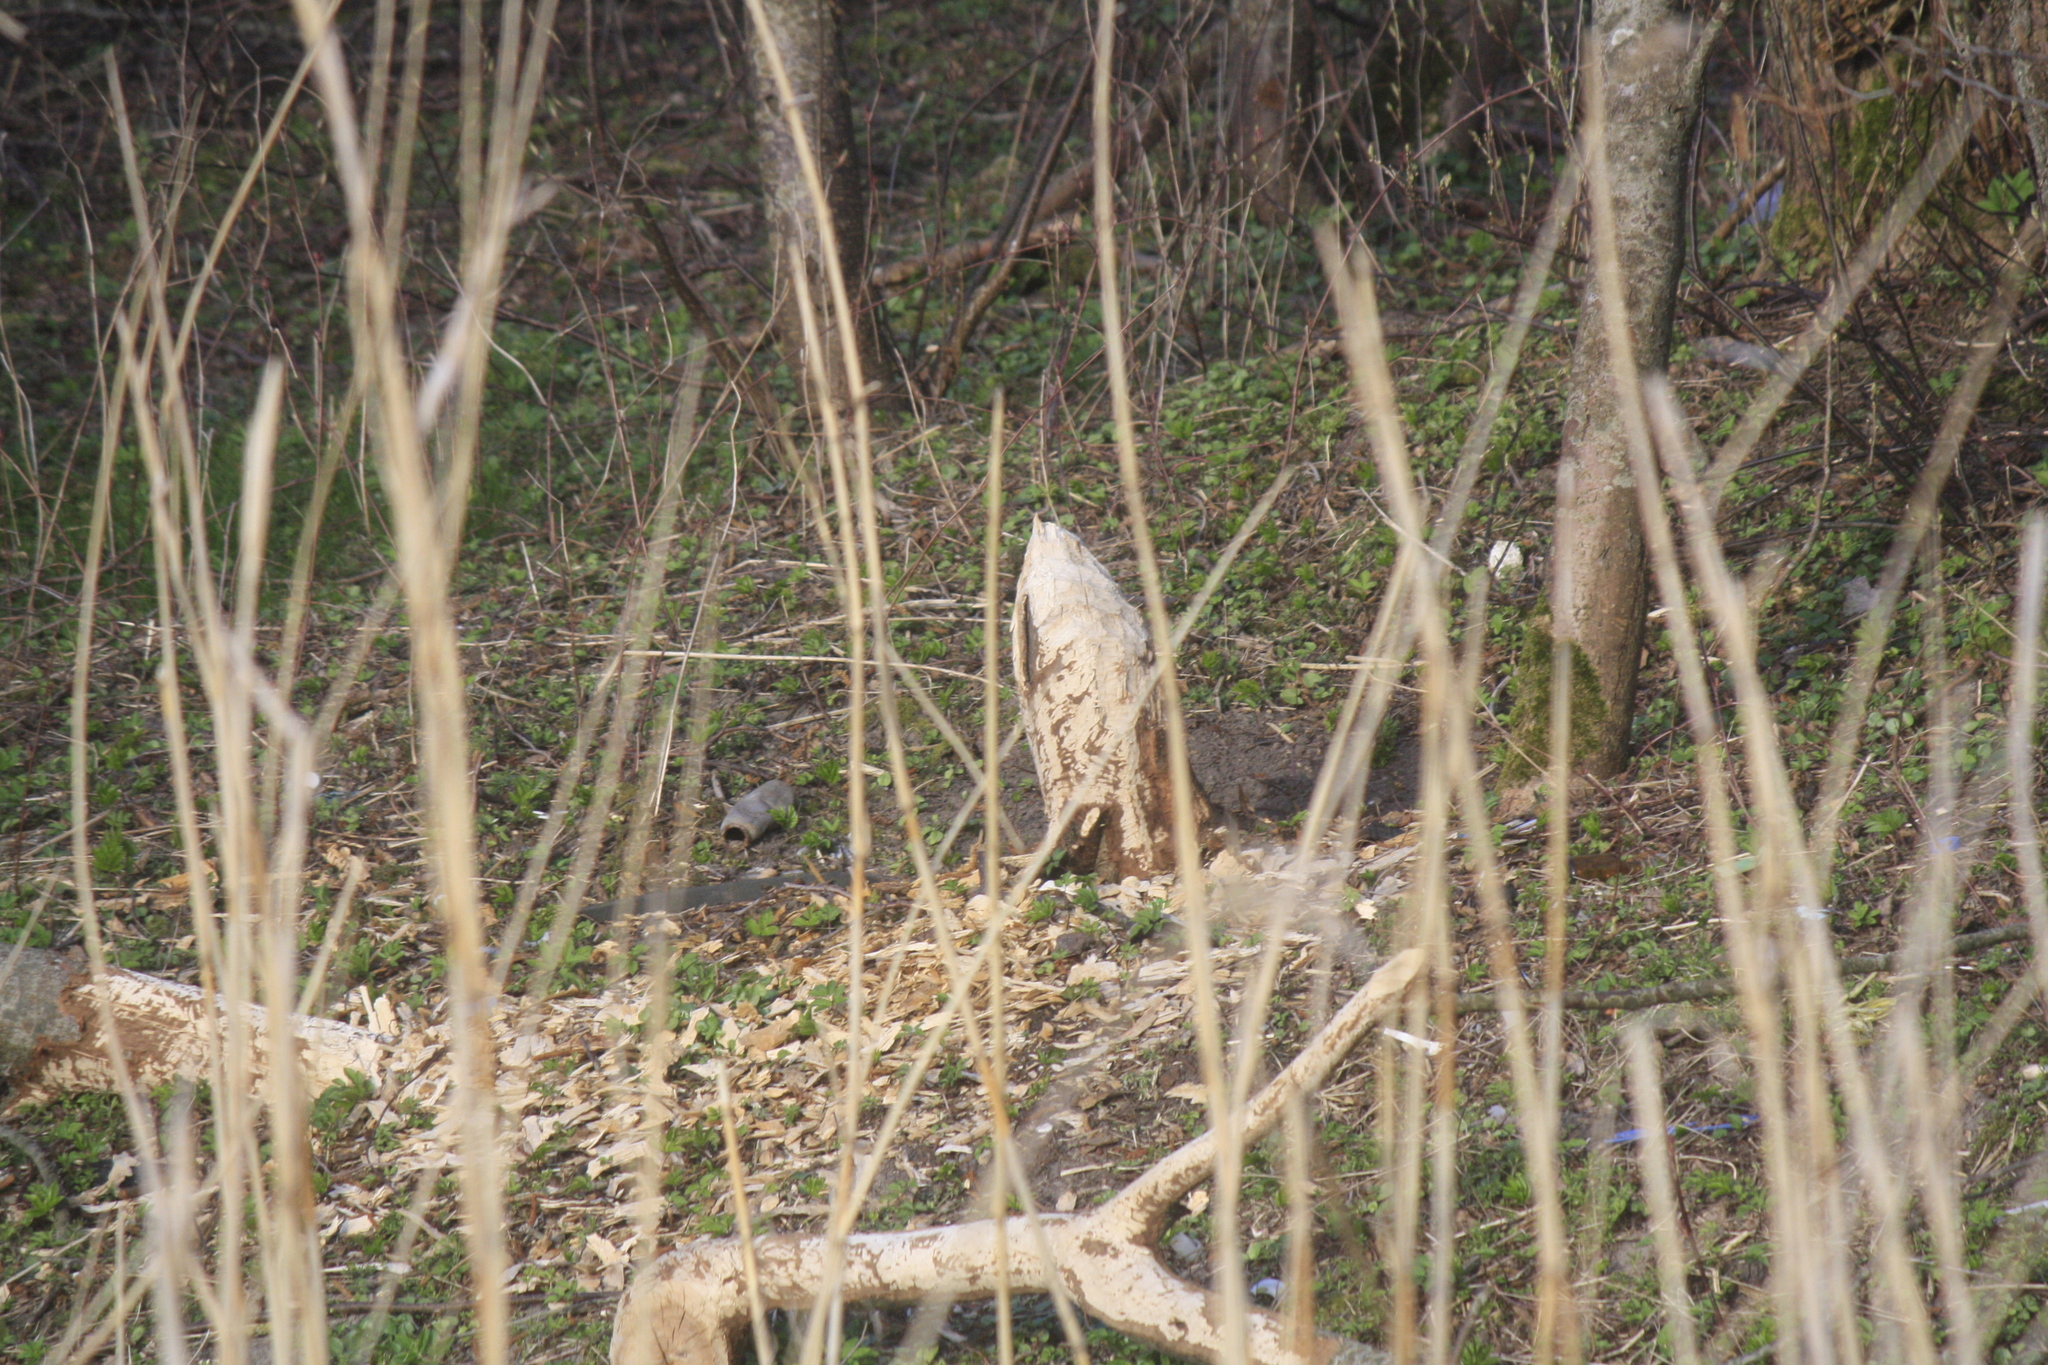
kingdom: Animalia
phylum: Chordata
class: Mammalia
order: Rodentia
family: Castoridae
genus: Castor
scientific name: Castor fiber
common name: Eurasian beaver
